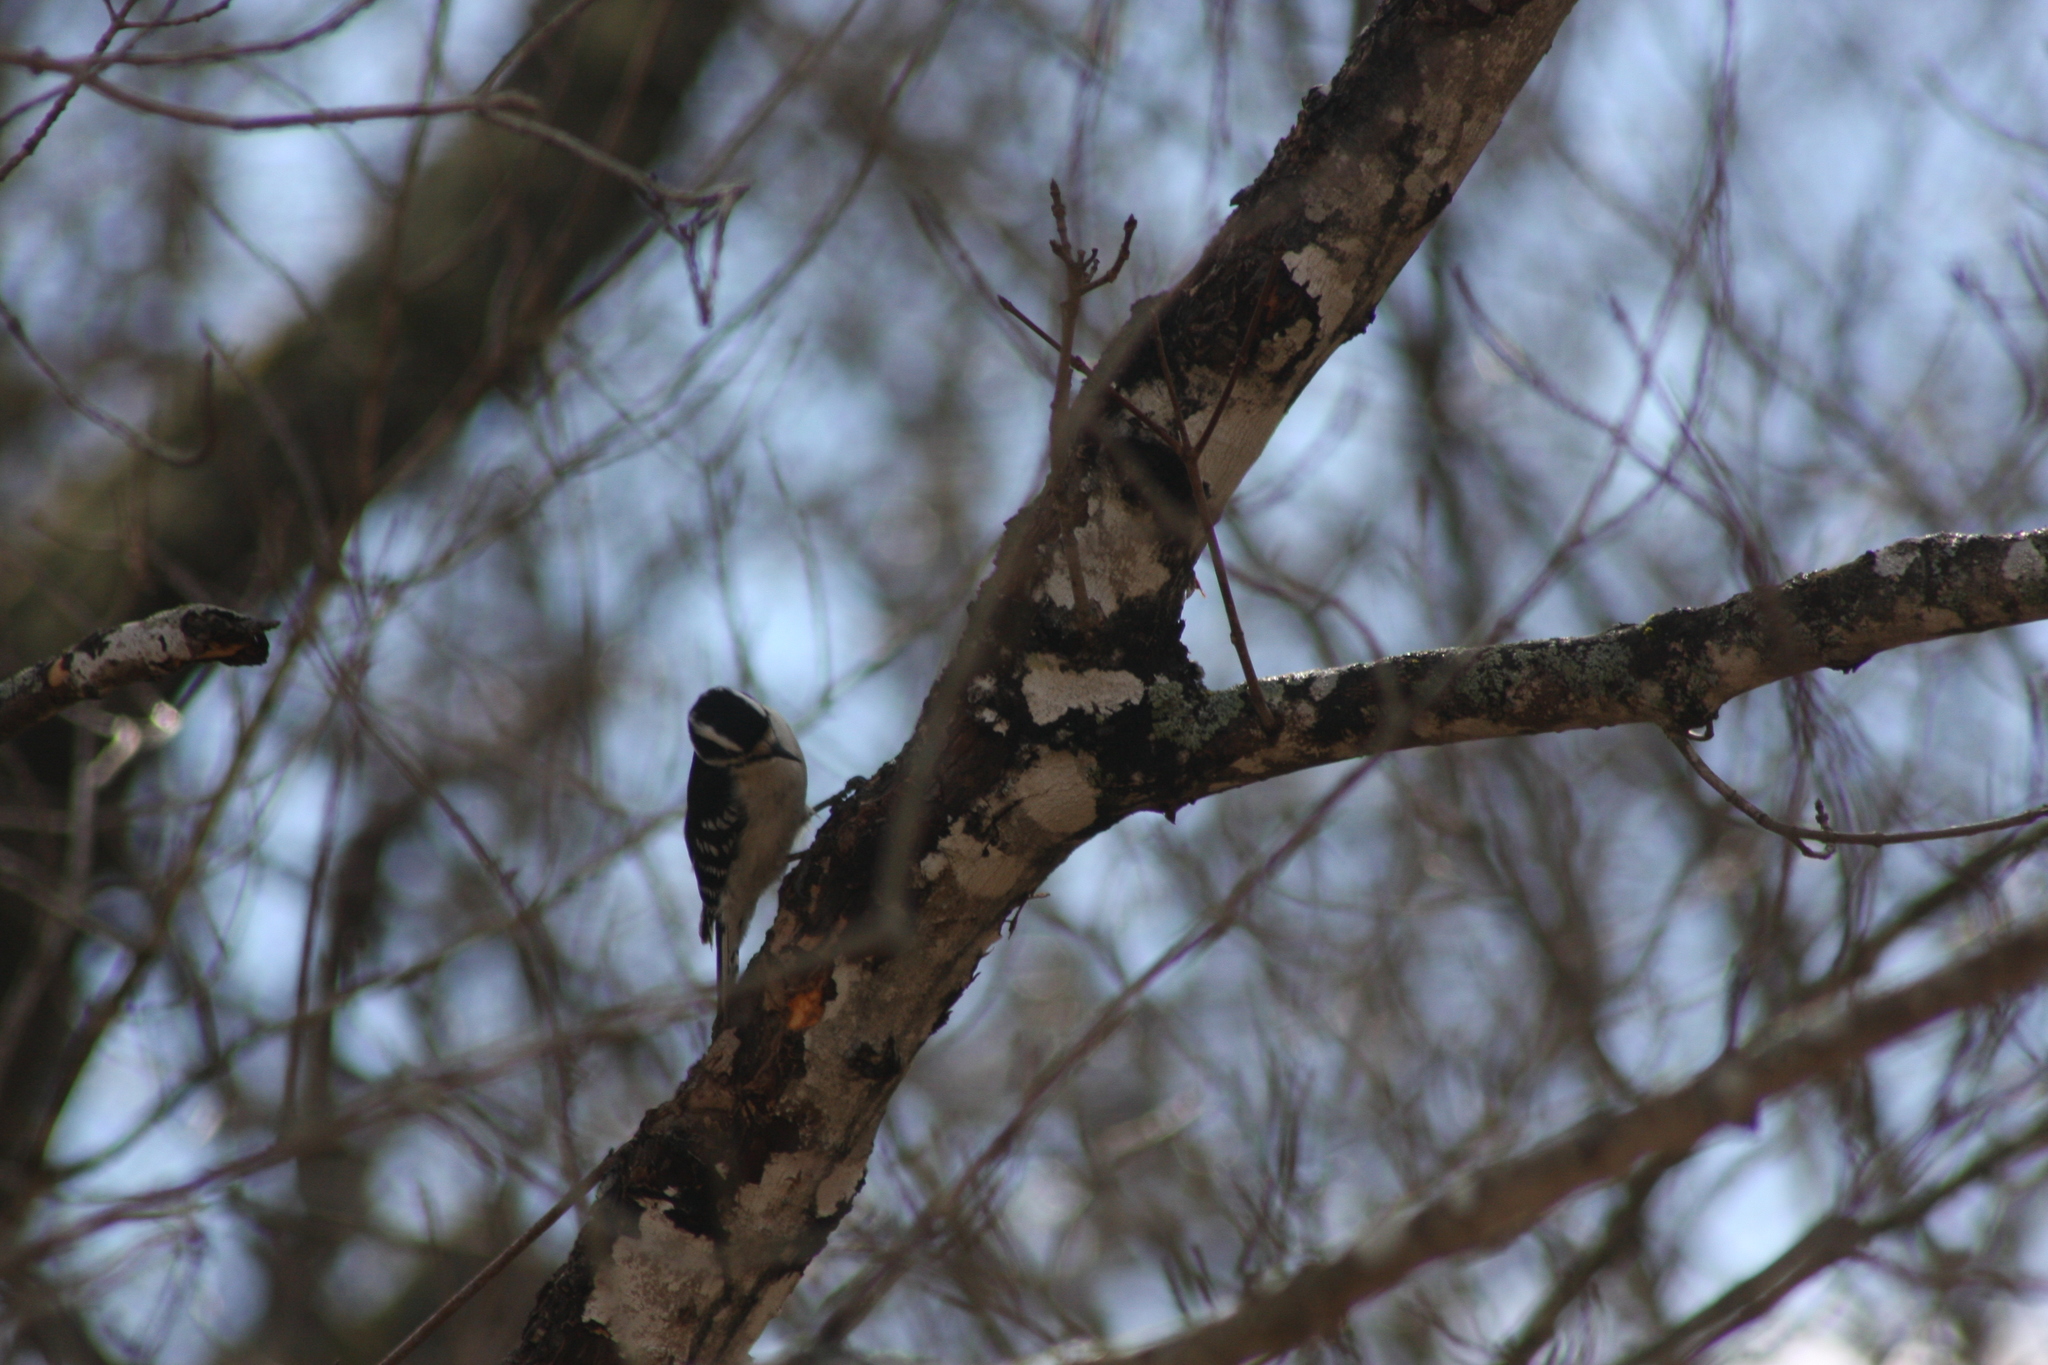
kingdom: Animalia
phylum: Chordata
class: Aves
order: Piciformes
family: Picidae
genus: Dryobates
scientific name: Dryobates pubescens
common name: Downy woodpecker
